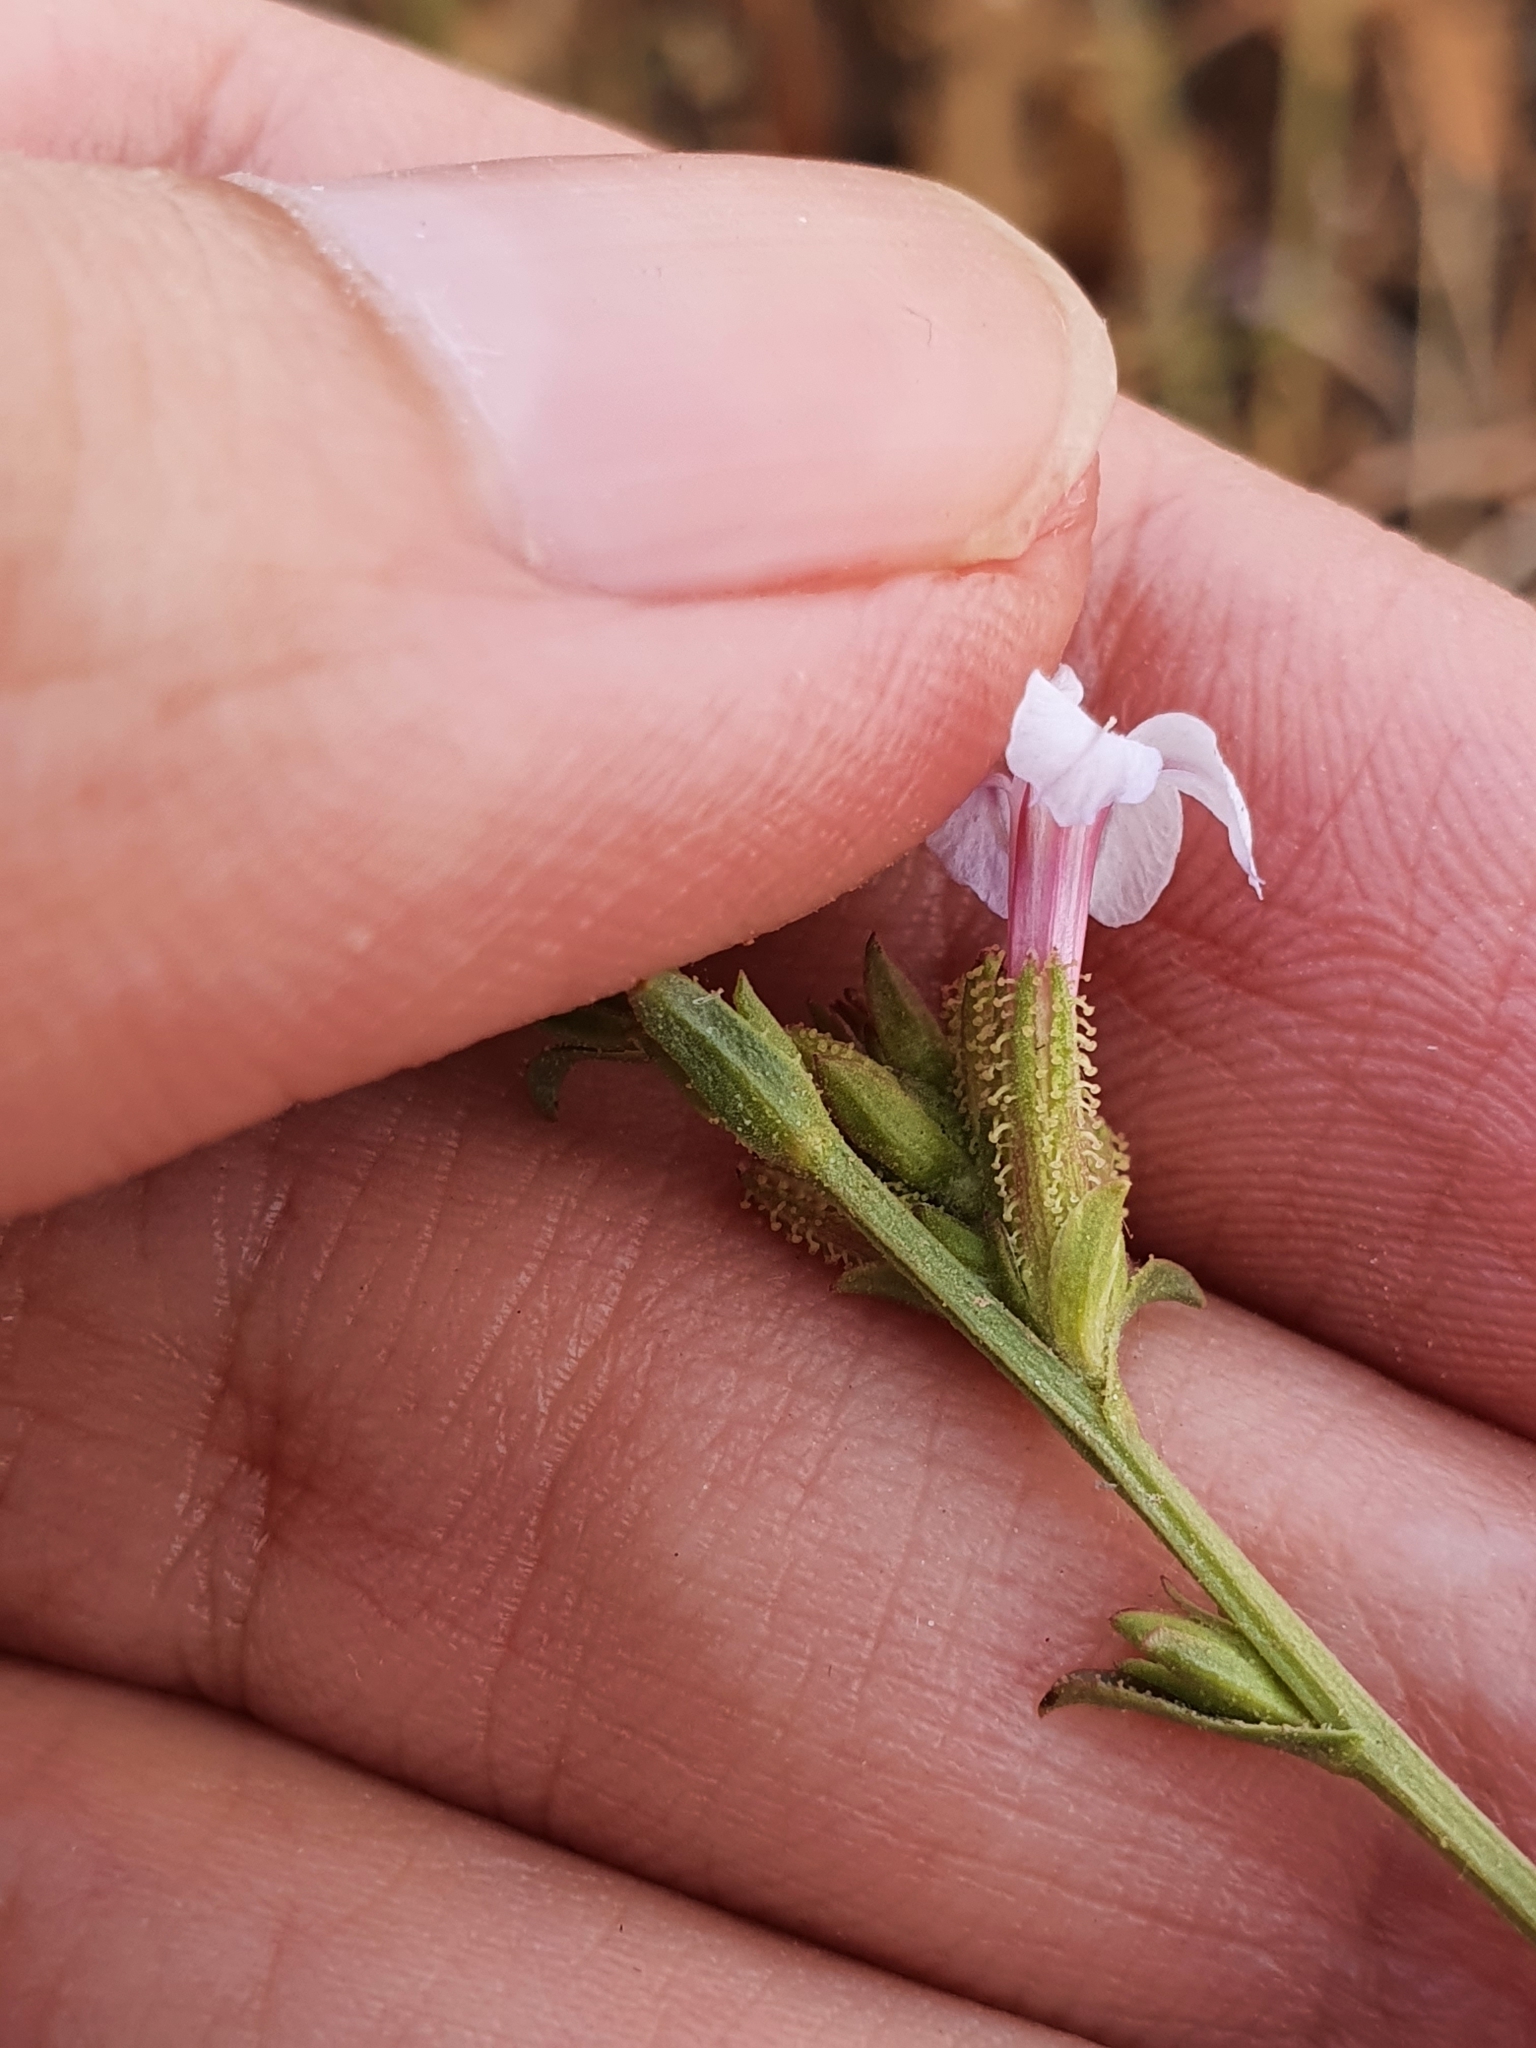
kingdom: Plantae
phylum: Tracheophyta
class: Magnoliopsida
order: Caryophyllales
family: Plumbaginaceae
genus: Plumbago
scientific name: Plumbago europaea
